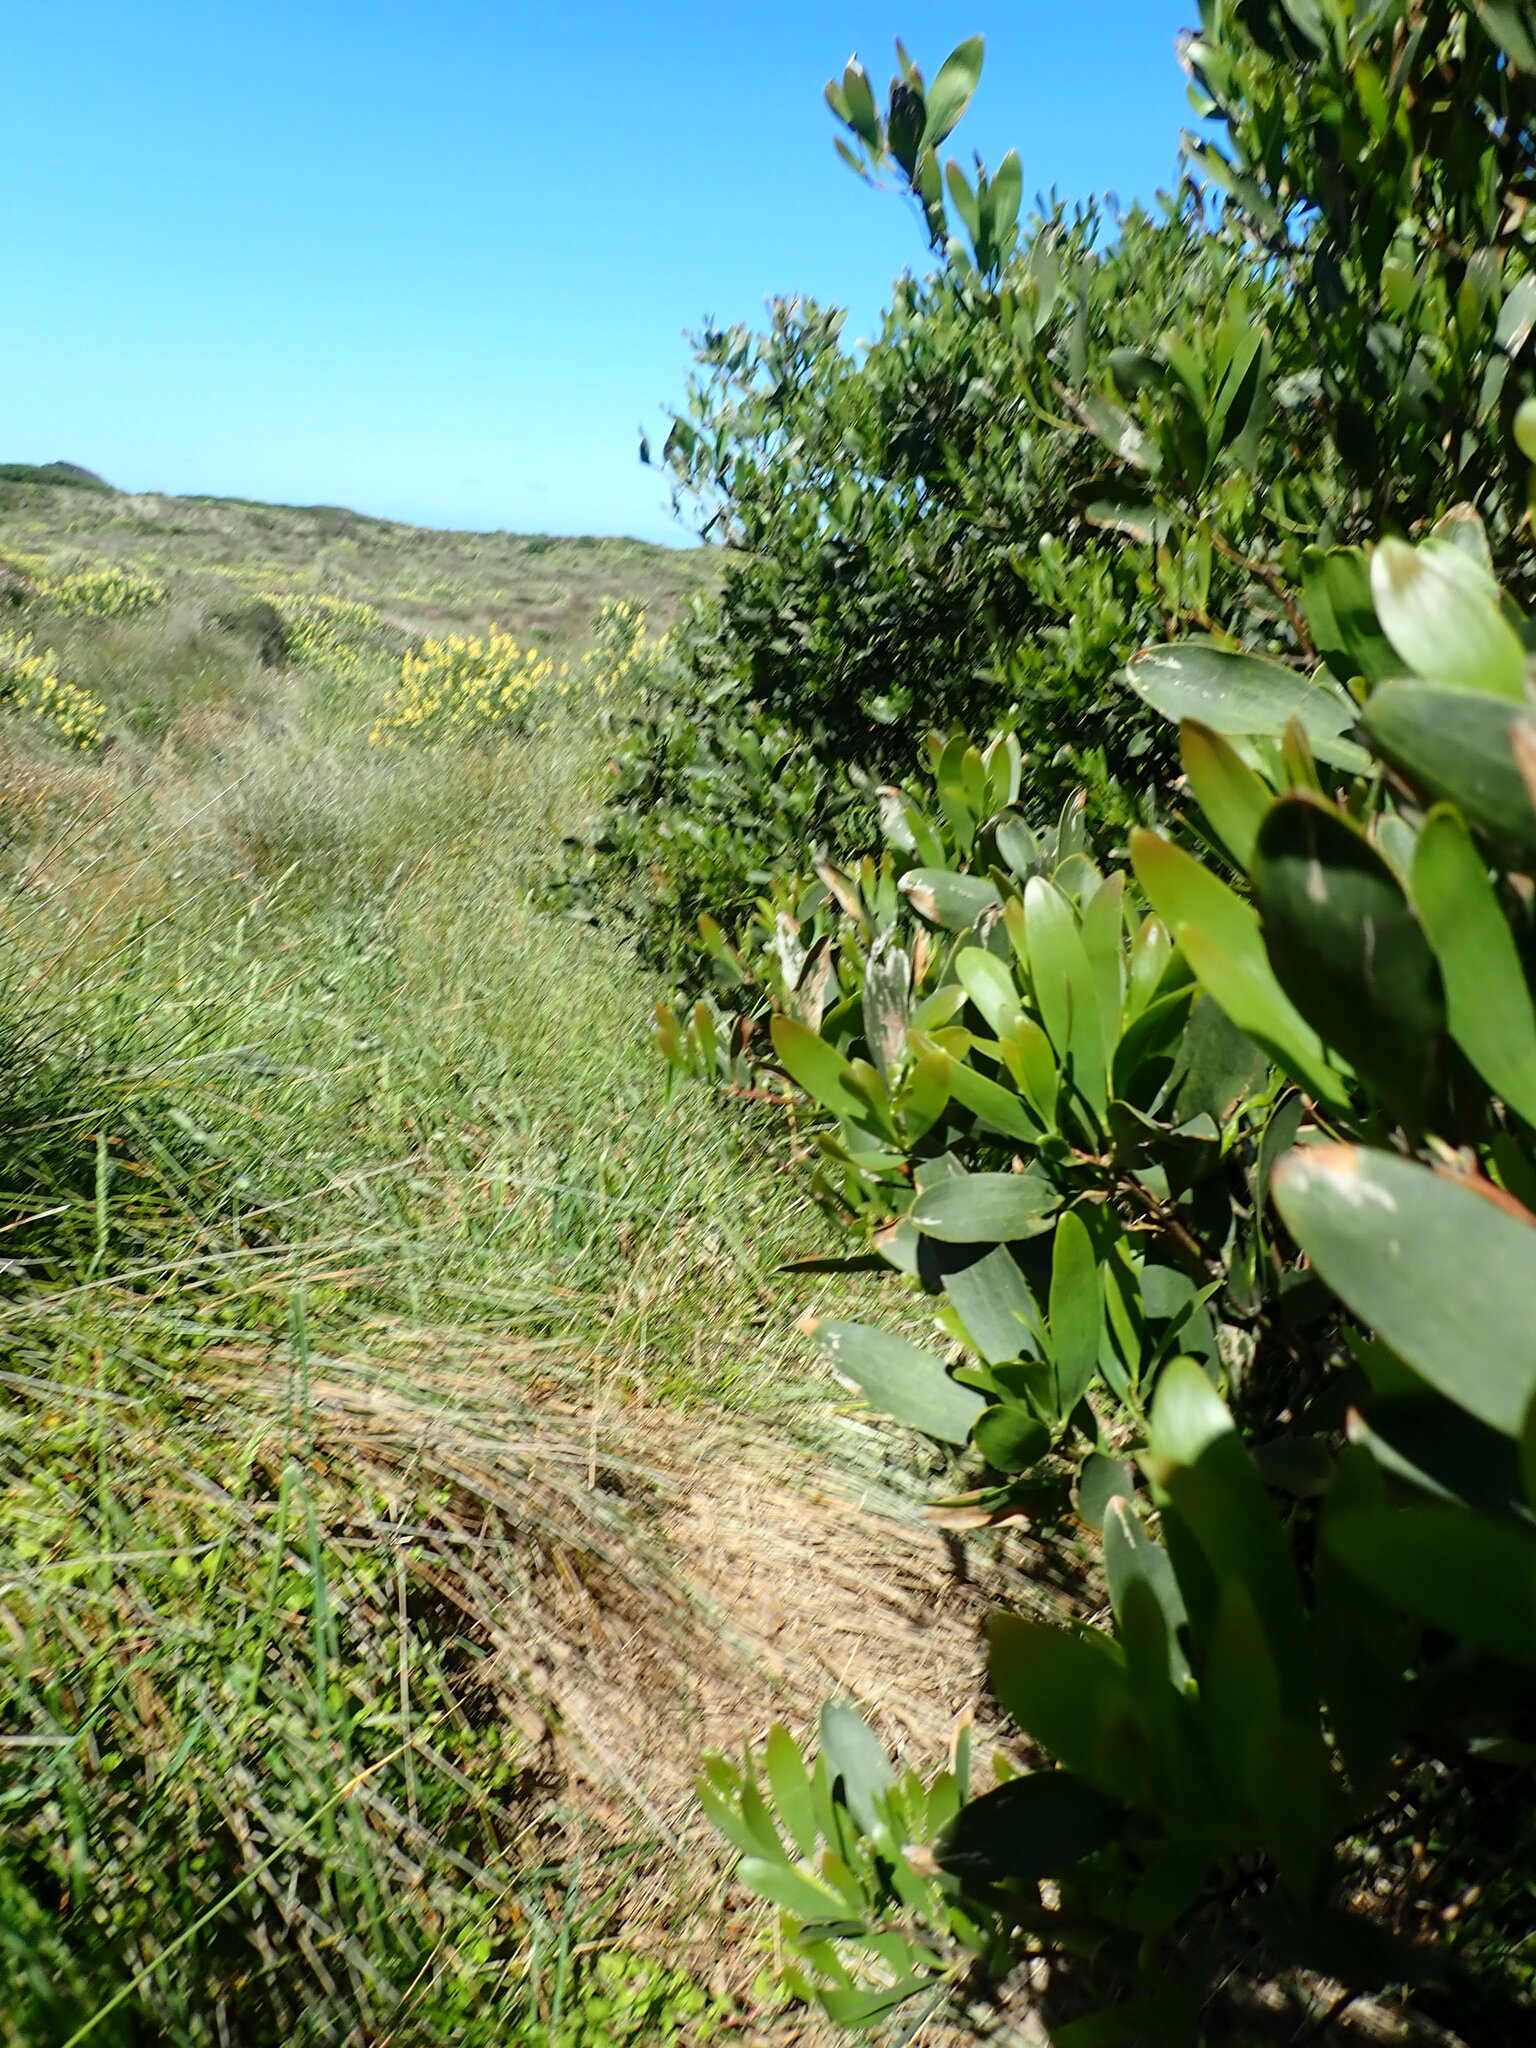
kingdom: Plantae
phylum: Tracheophyta
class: Magnoliopsida
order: Fabales
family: Fabaceae
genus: Acacia
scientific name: Acacia longifolia
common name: Sydney golden wattle
